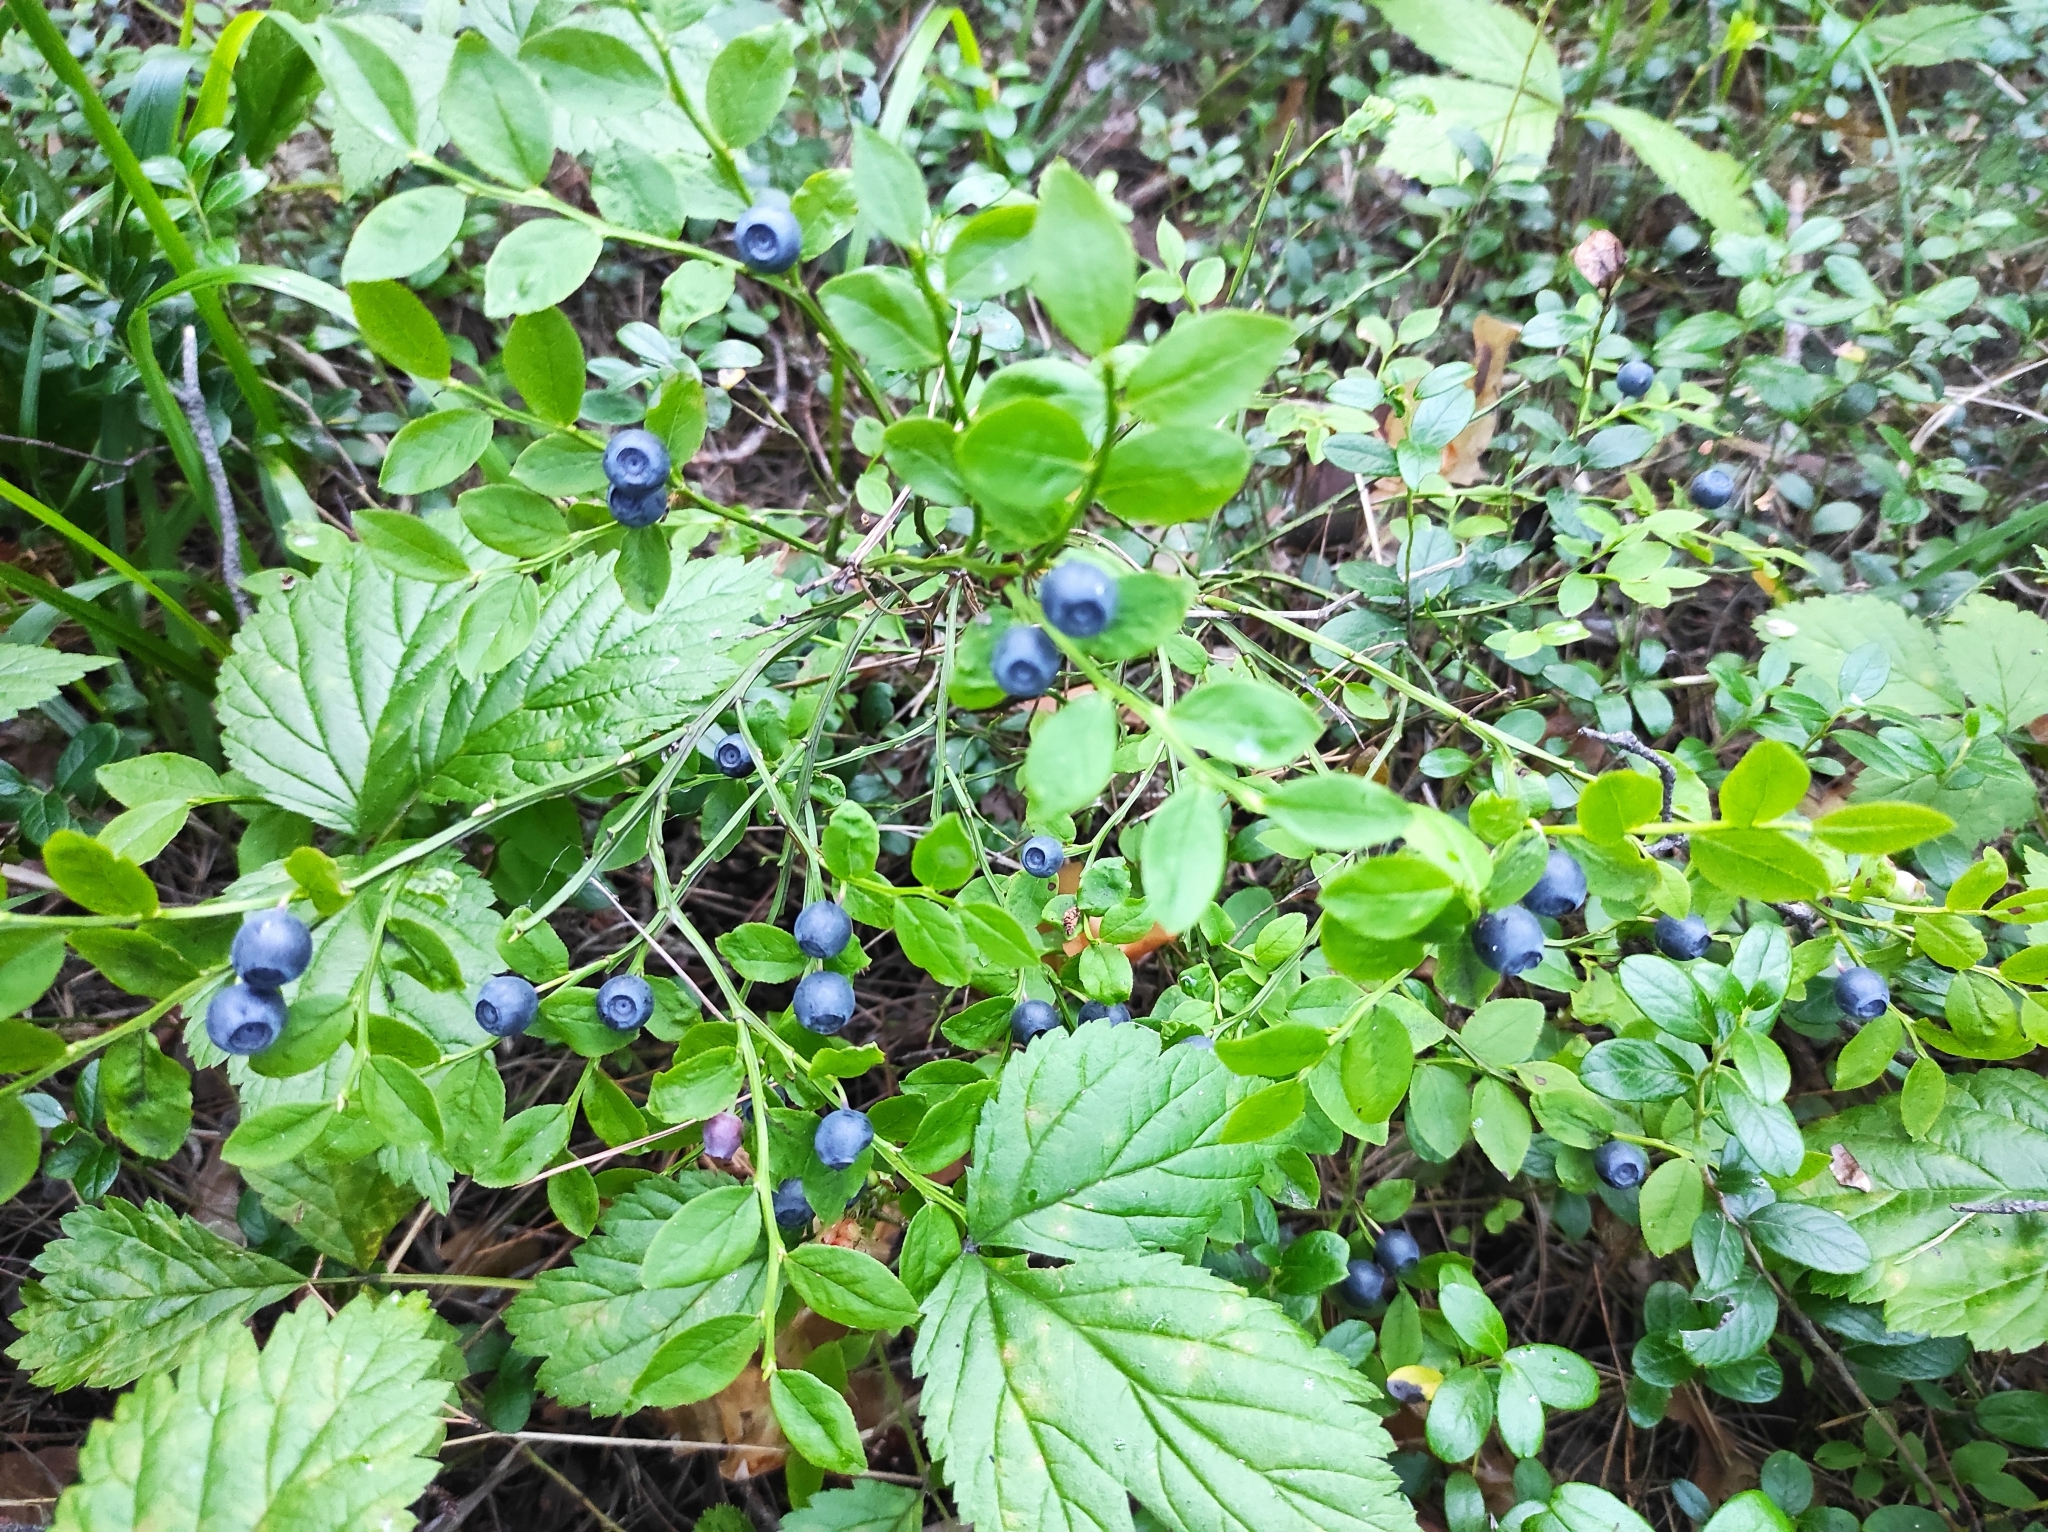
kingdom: Plantae
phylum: Tracheophyta
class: Magnoliopsida
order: Ericales
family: Ericaceae
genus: Vaccinium
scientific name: Vaccinium myrtillus
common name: Bilberry
